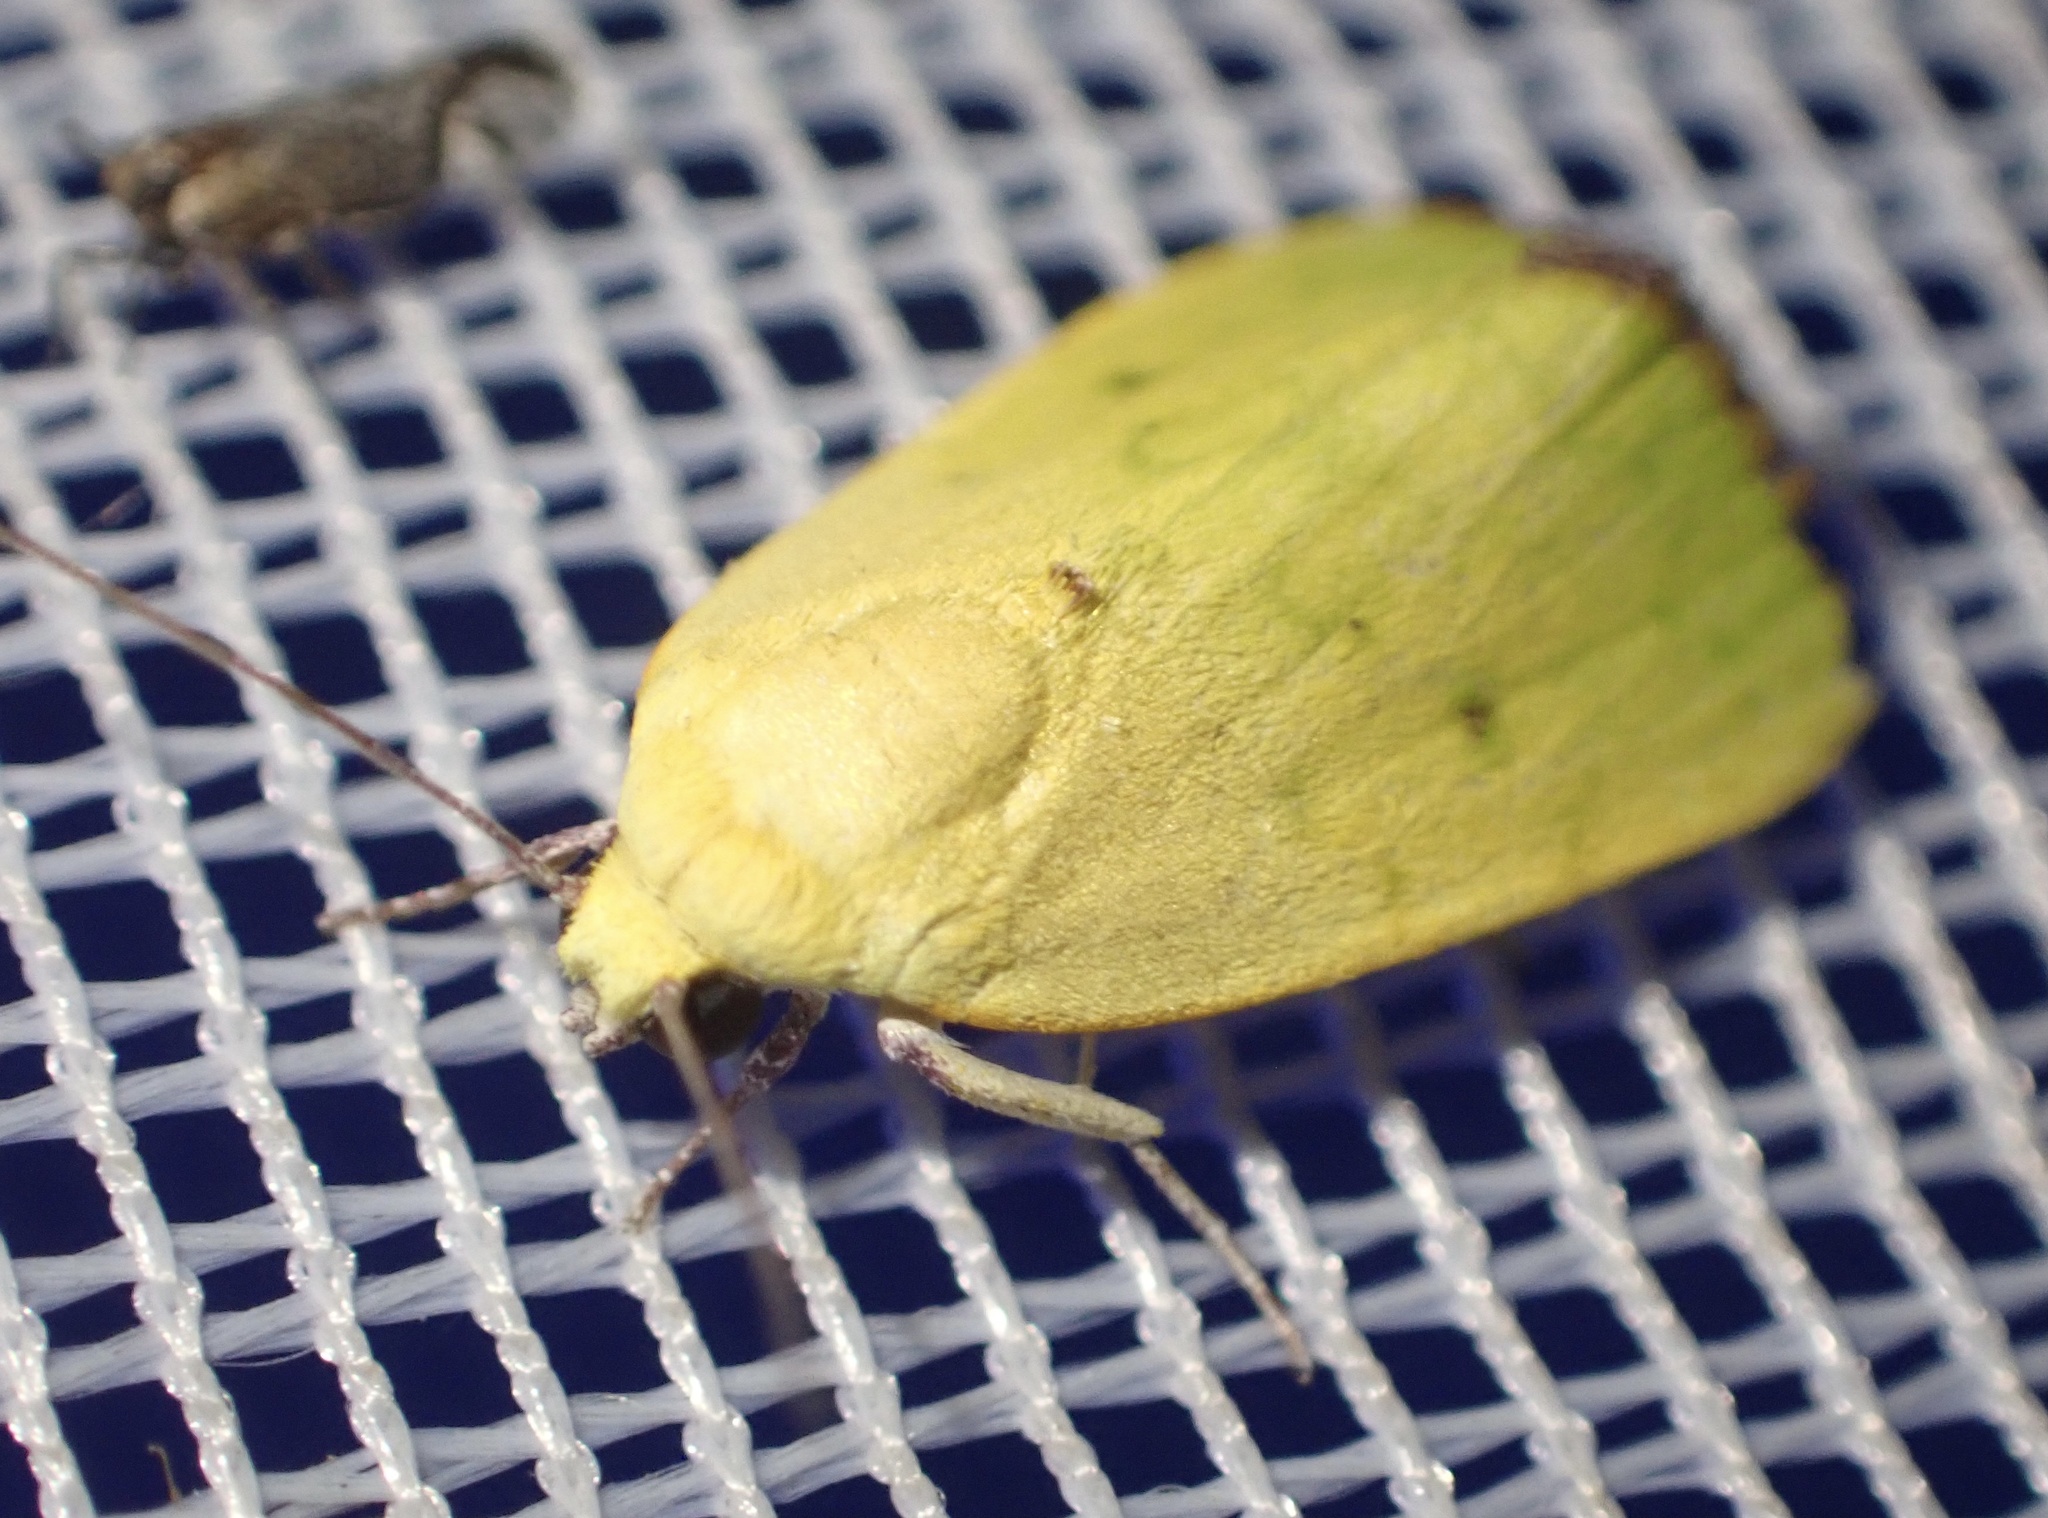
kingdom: Animalia
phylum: Arthropoda
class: Insecta
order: Lepidoptera
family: Nolidae
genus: Earias
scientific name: Earias biplaga
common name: Spiny bollworm
